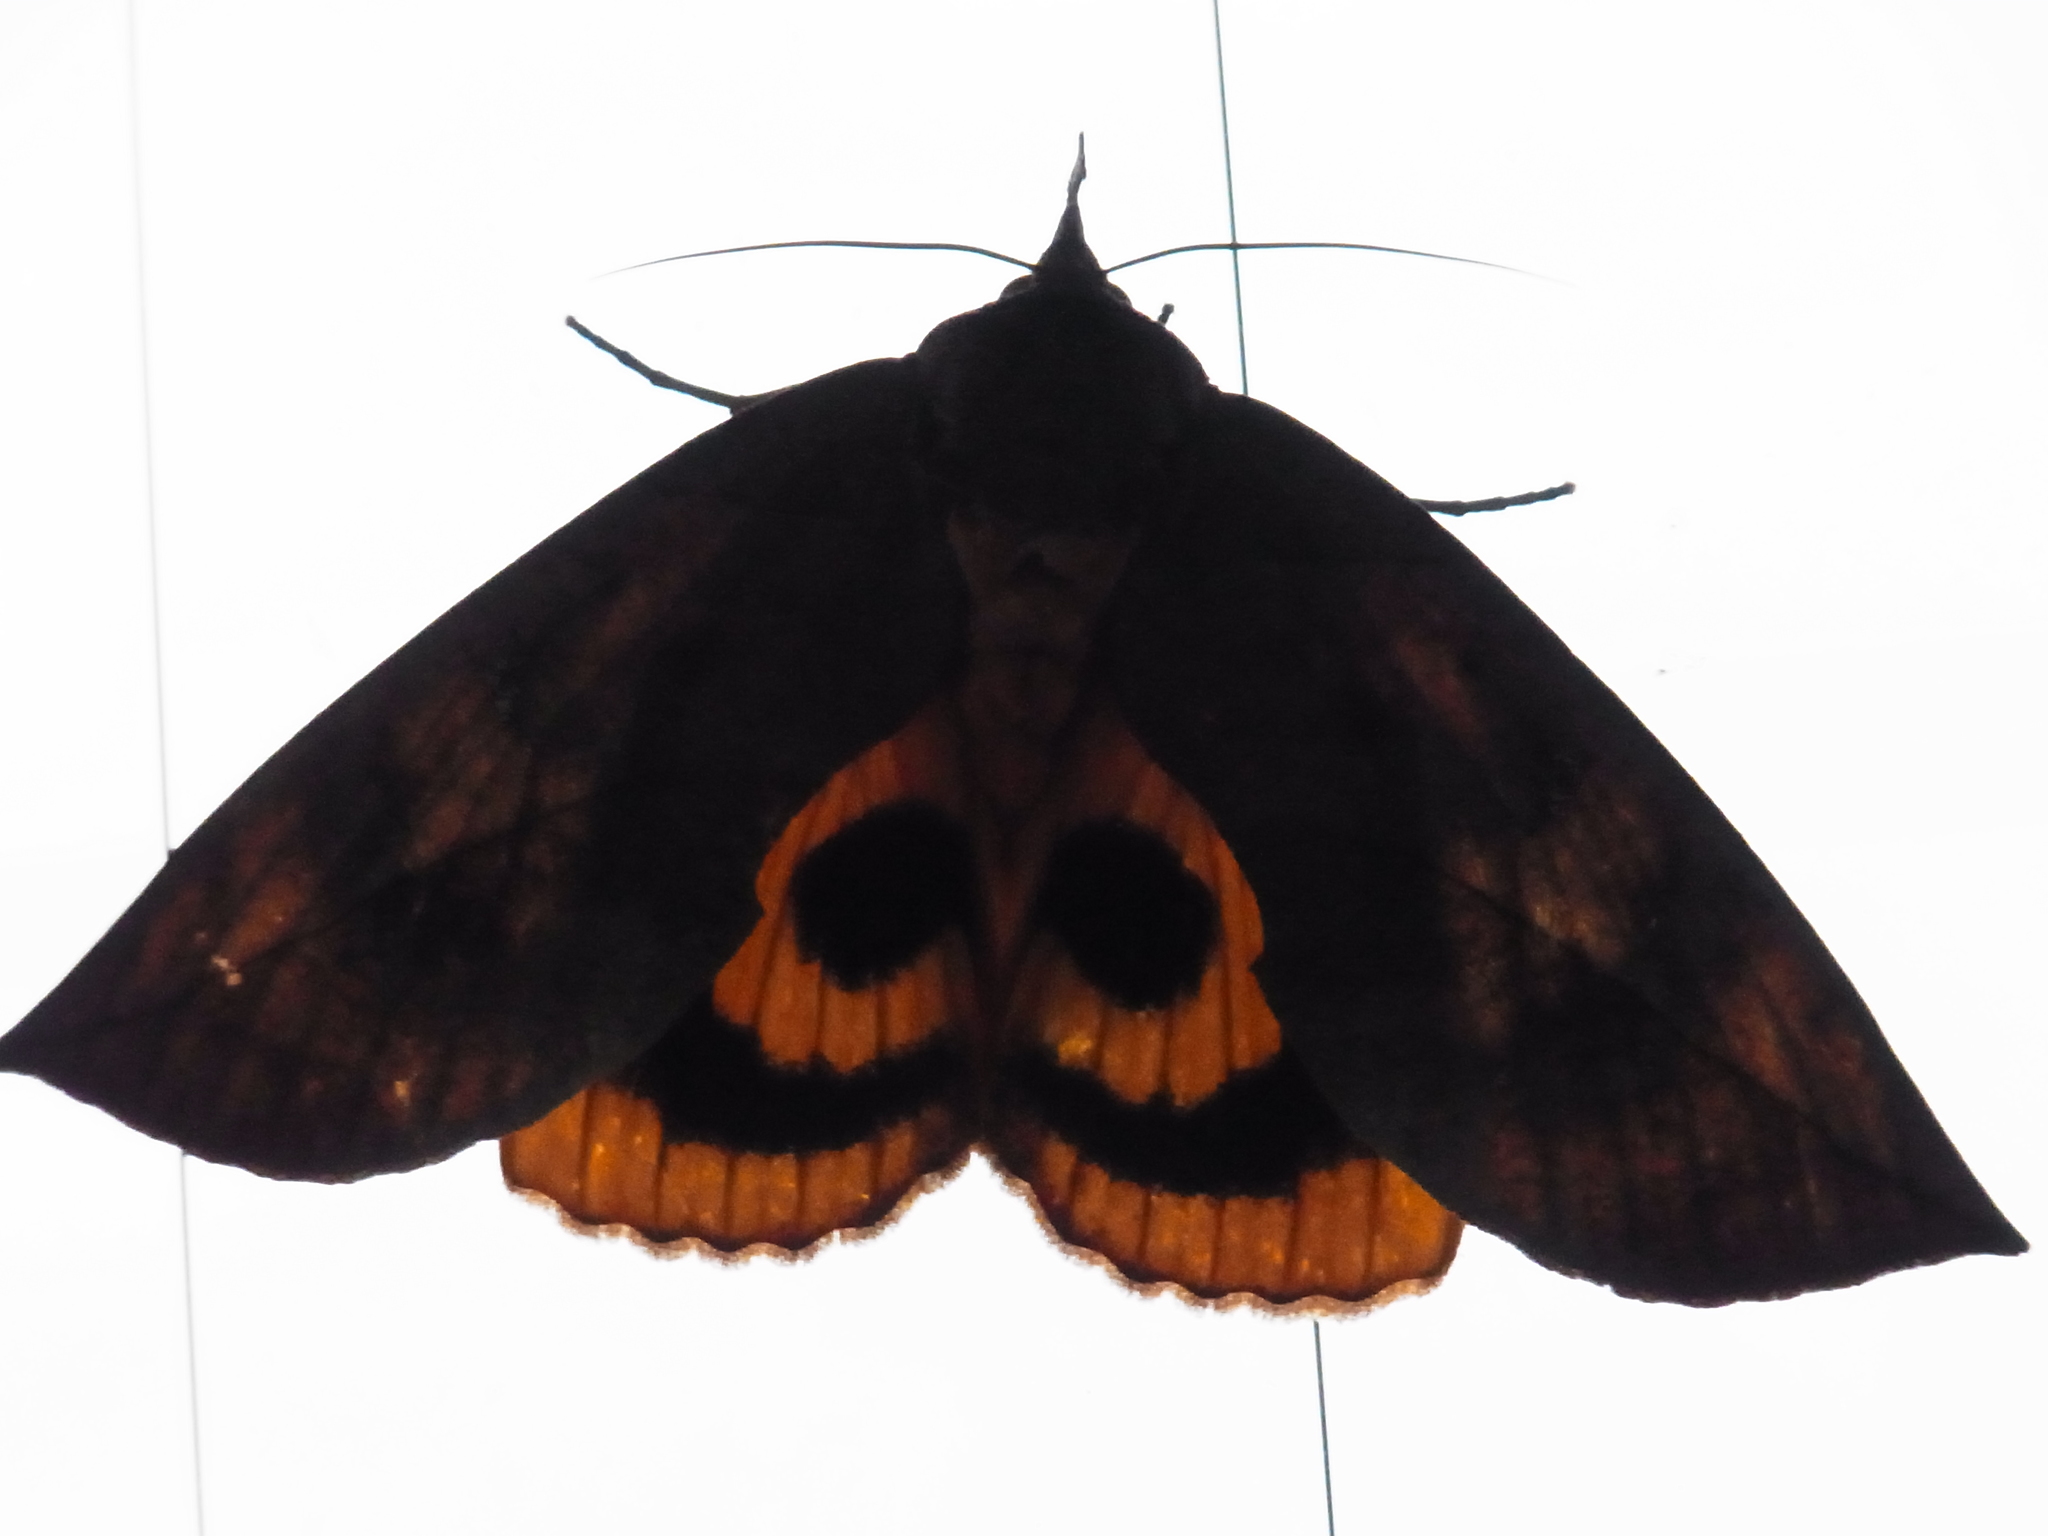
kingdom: Animalia
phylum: Arthropoda
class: Insecta
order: Lepidoptera
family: Erebidae
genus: Eudocima
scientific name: Eudocima tyrannus
